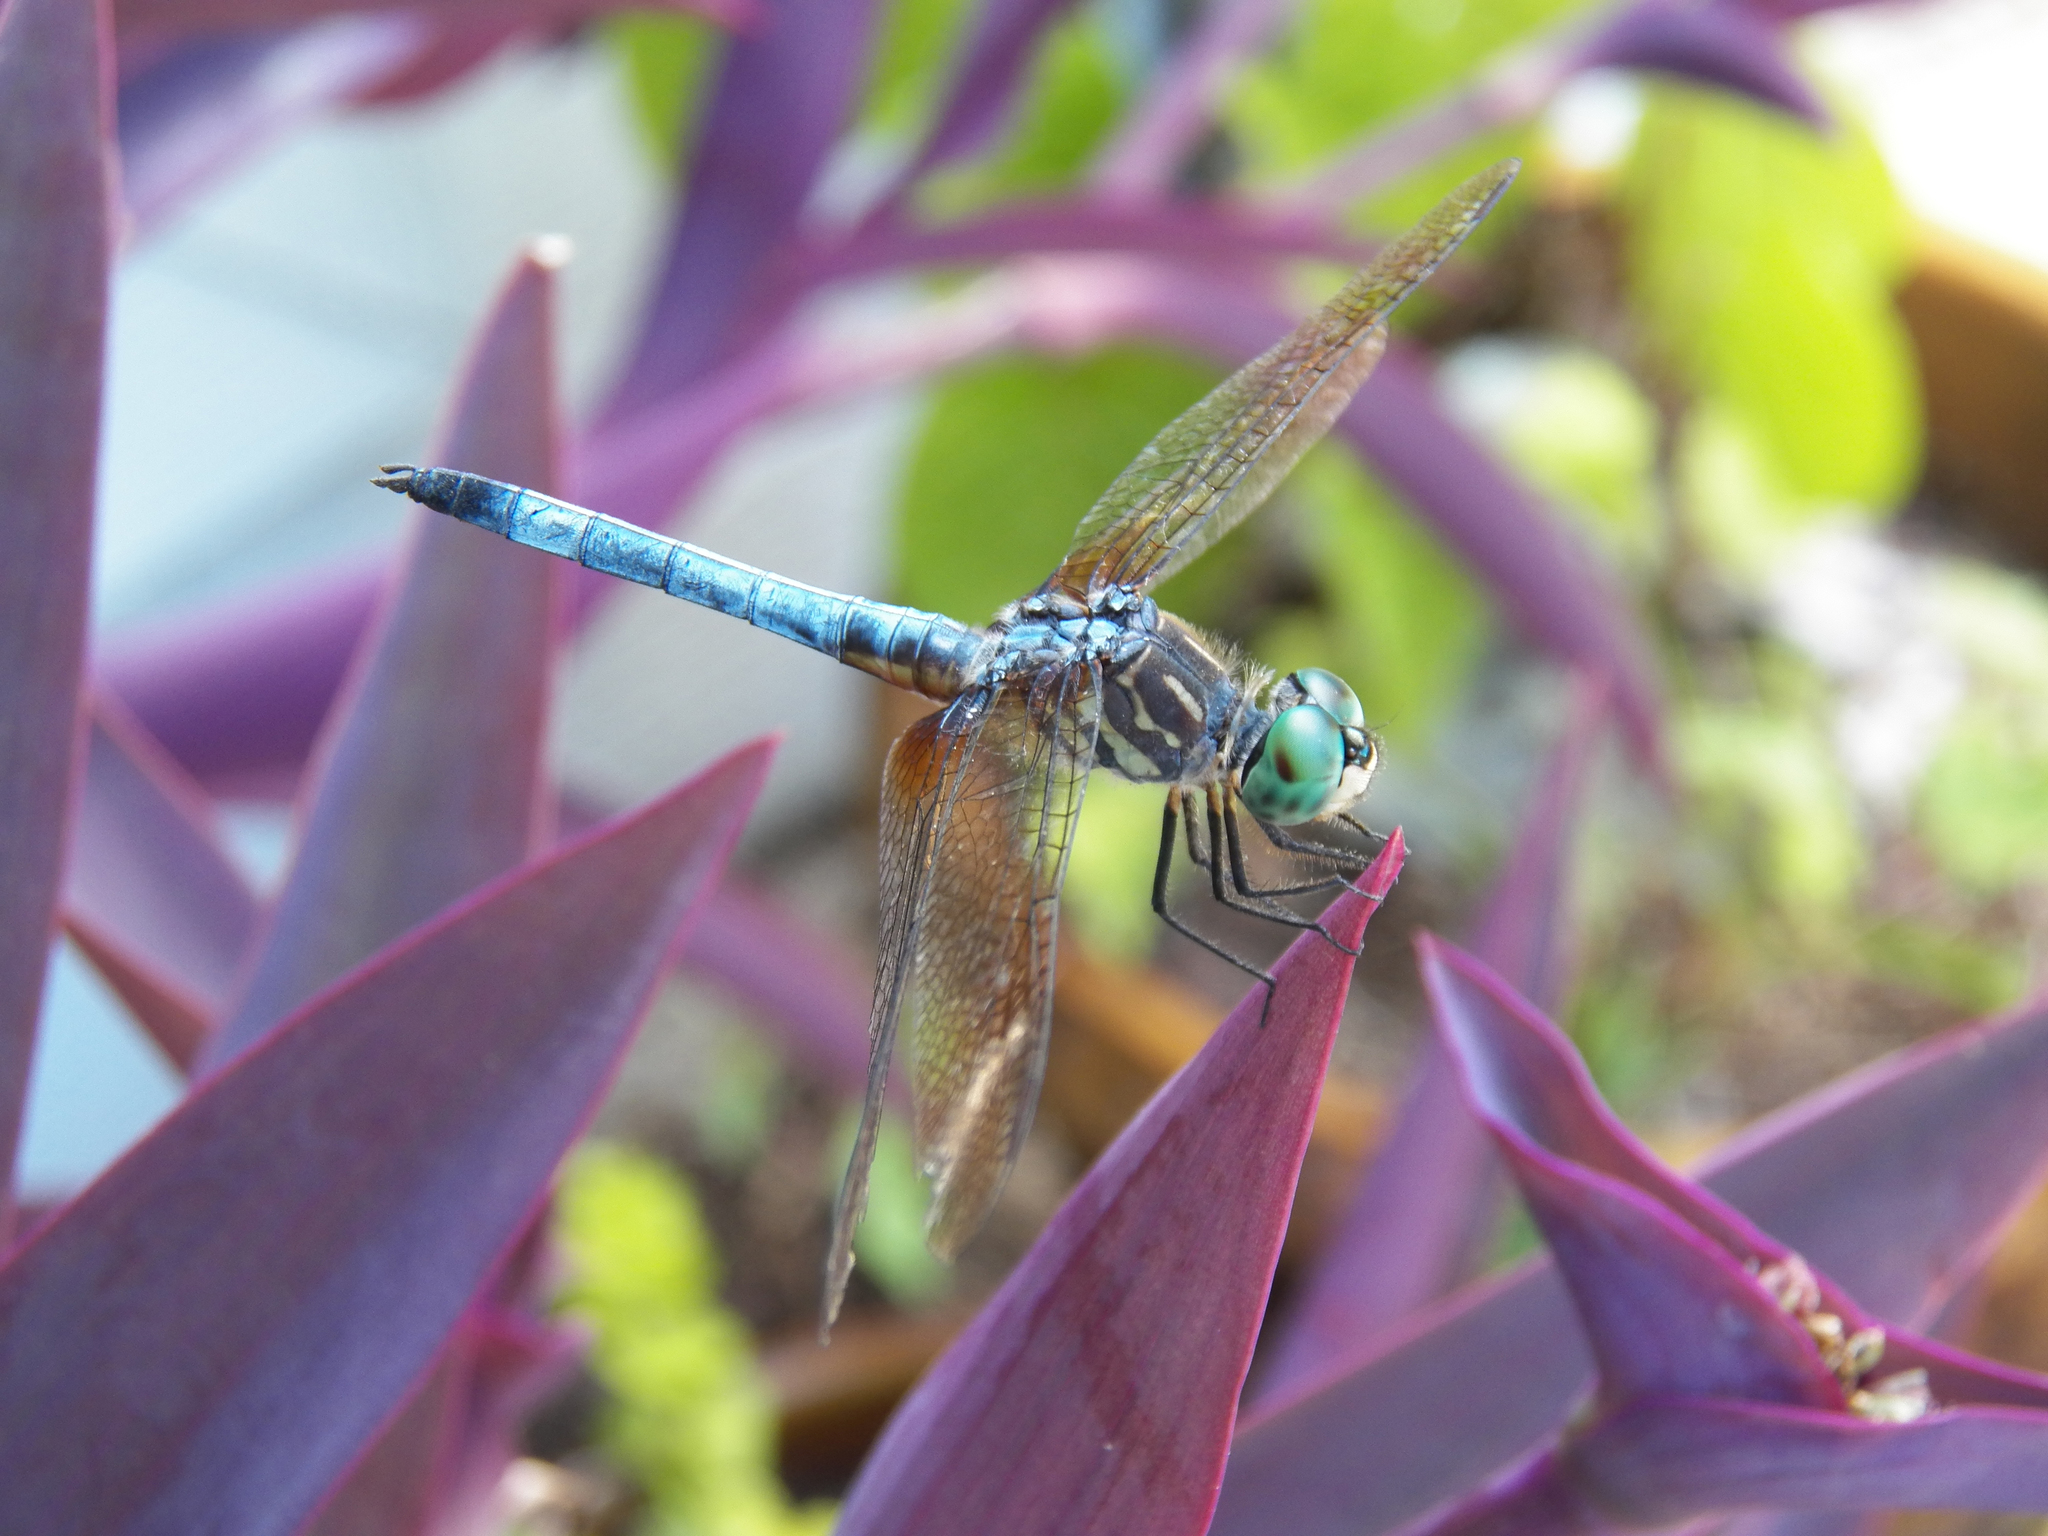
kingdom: Animalia
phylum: Arthropoda
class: Insecta
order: Odonata
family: Libellulidae
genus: Pachydiplax
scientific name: Pachydiplax longipennis
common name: Blue dasher
